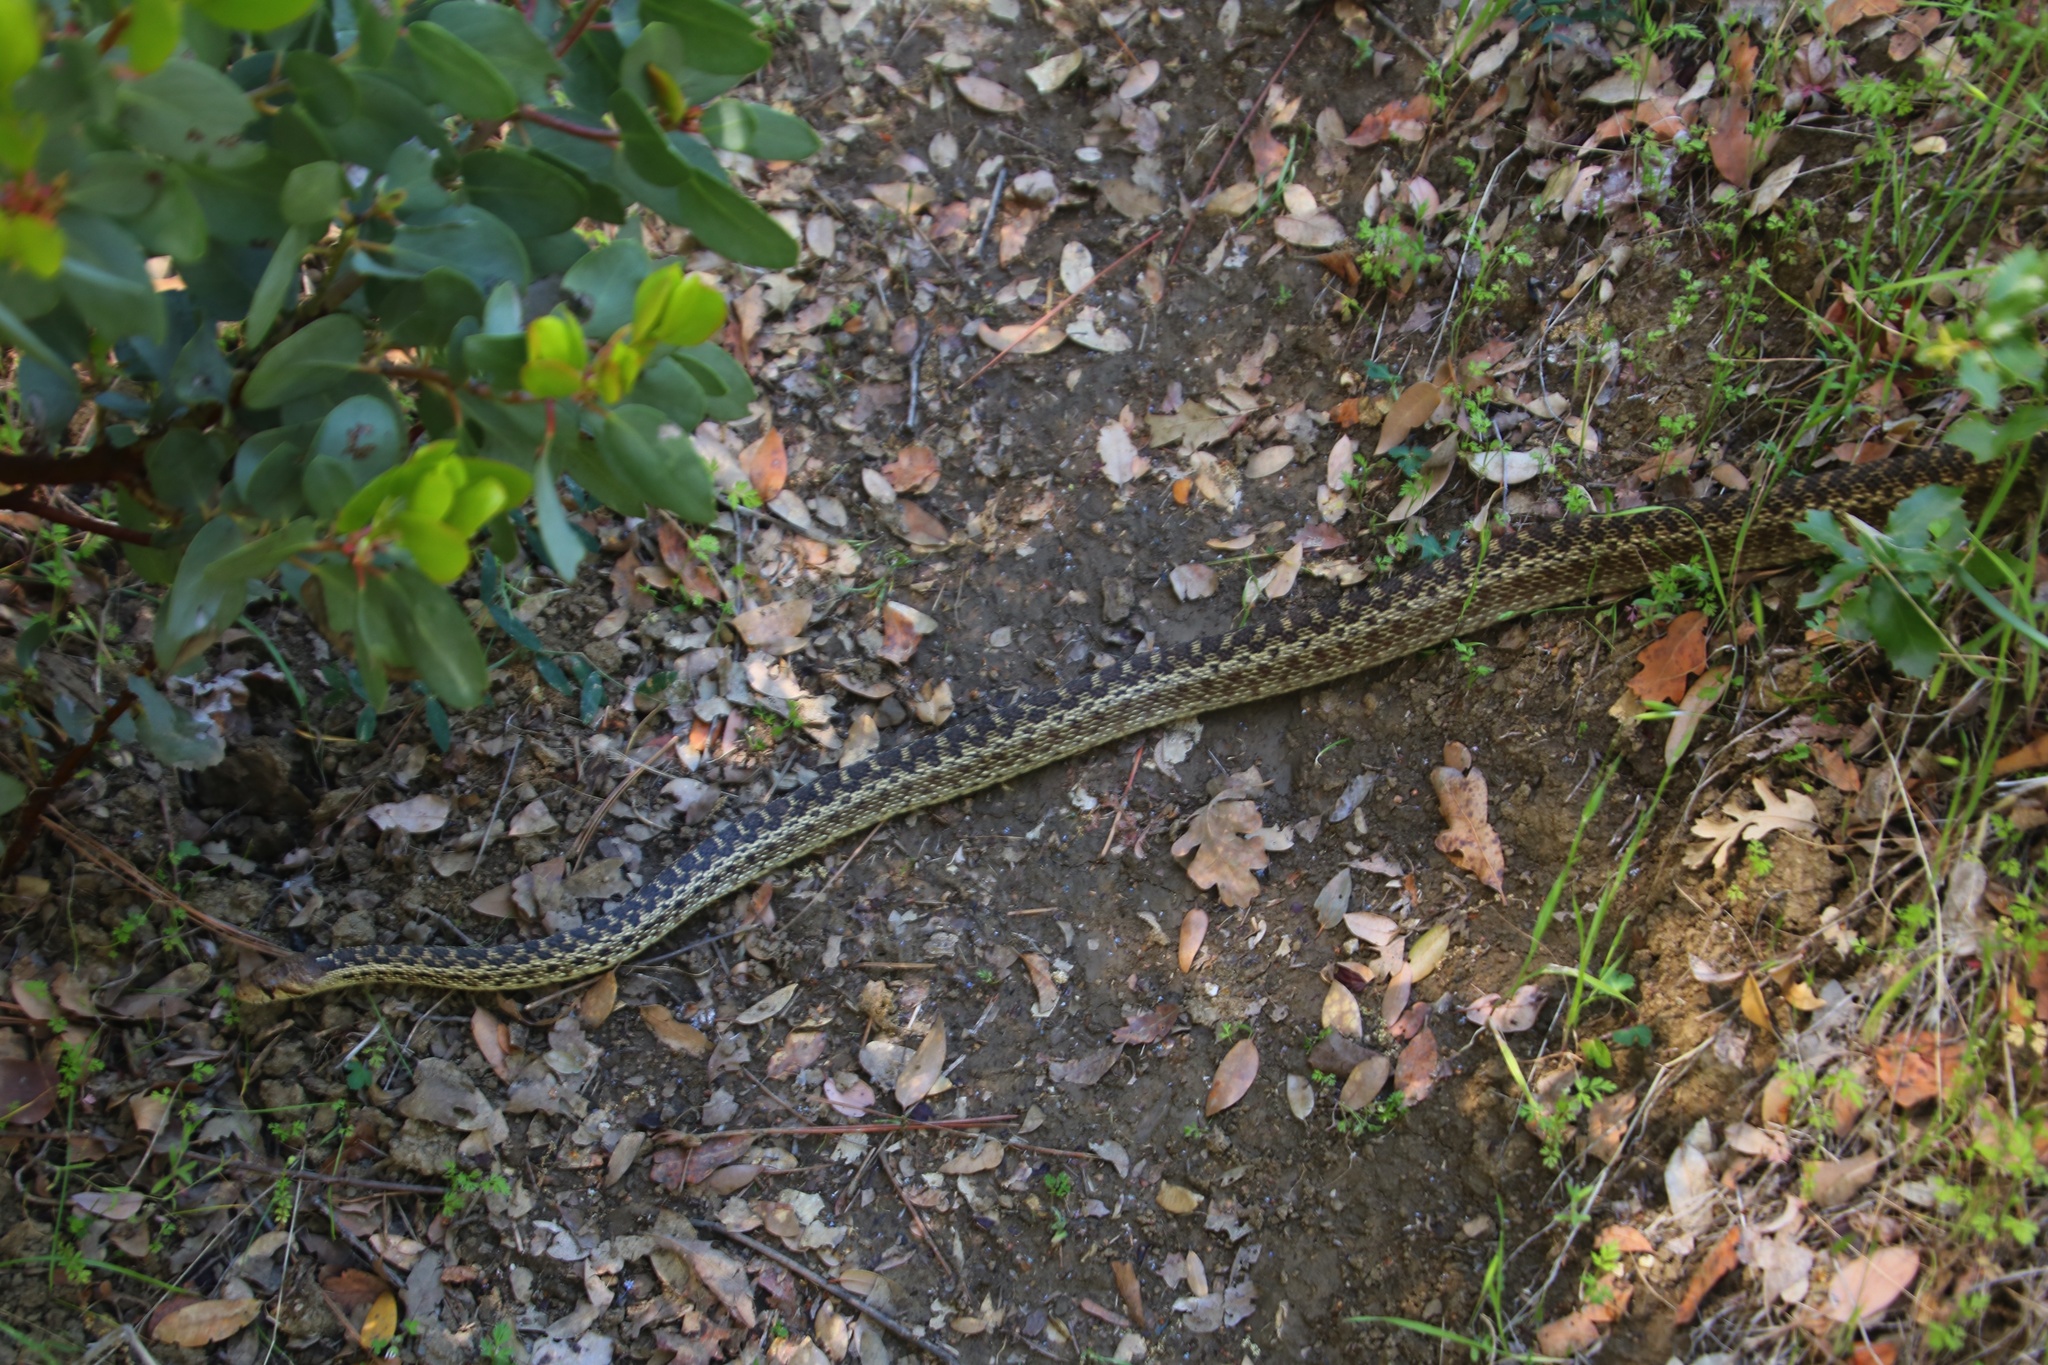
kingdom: Animalia
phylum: Chordata
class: Squamata
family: Colubridae
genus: Pituophis
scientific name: Pituophis catenifer
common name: Gopher snake
